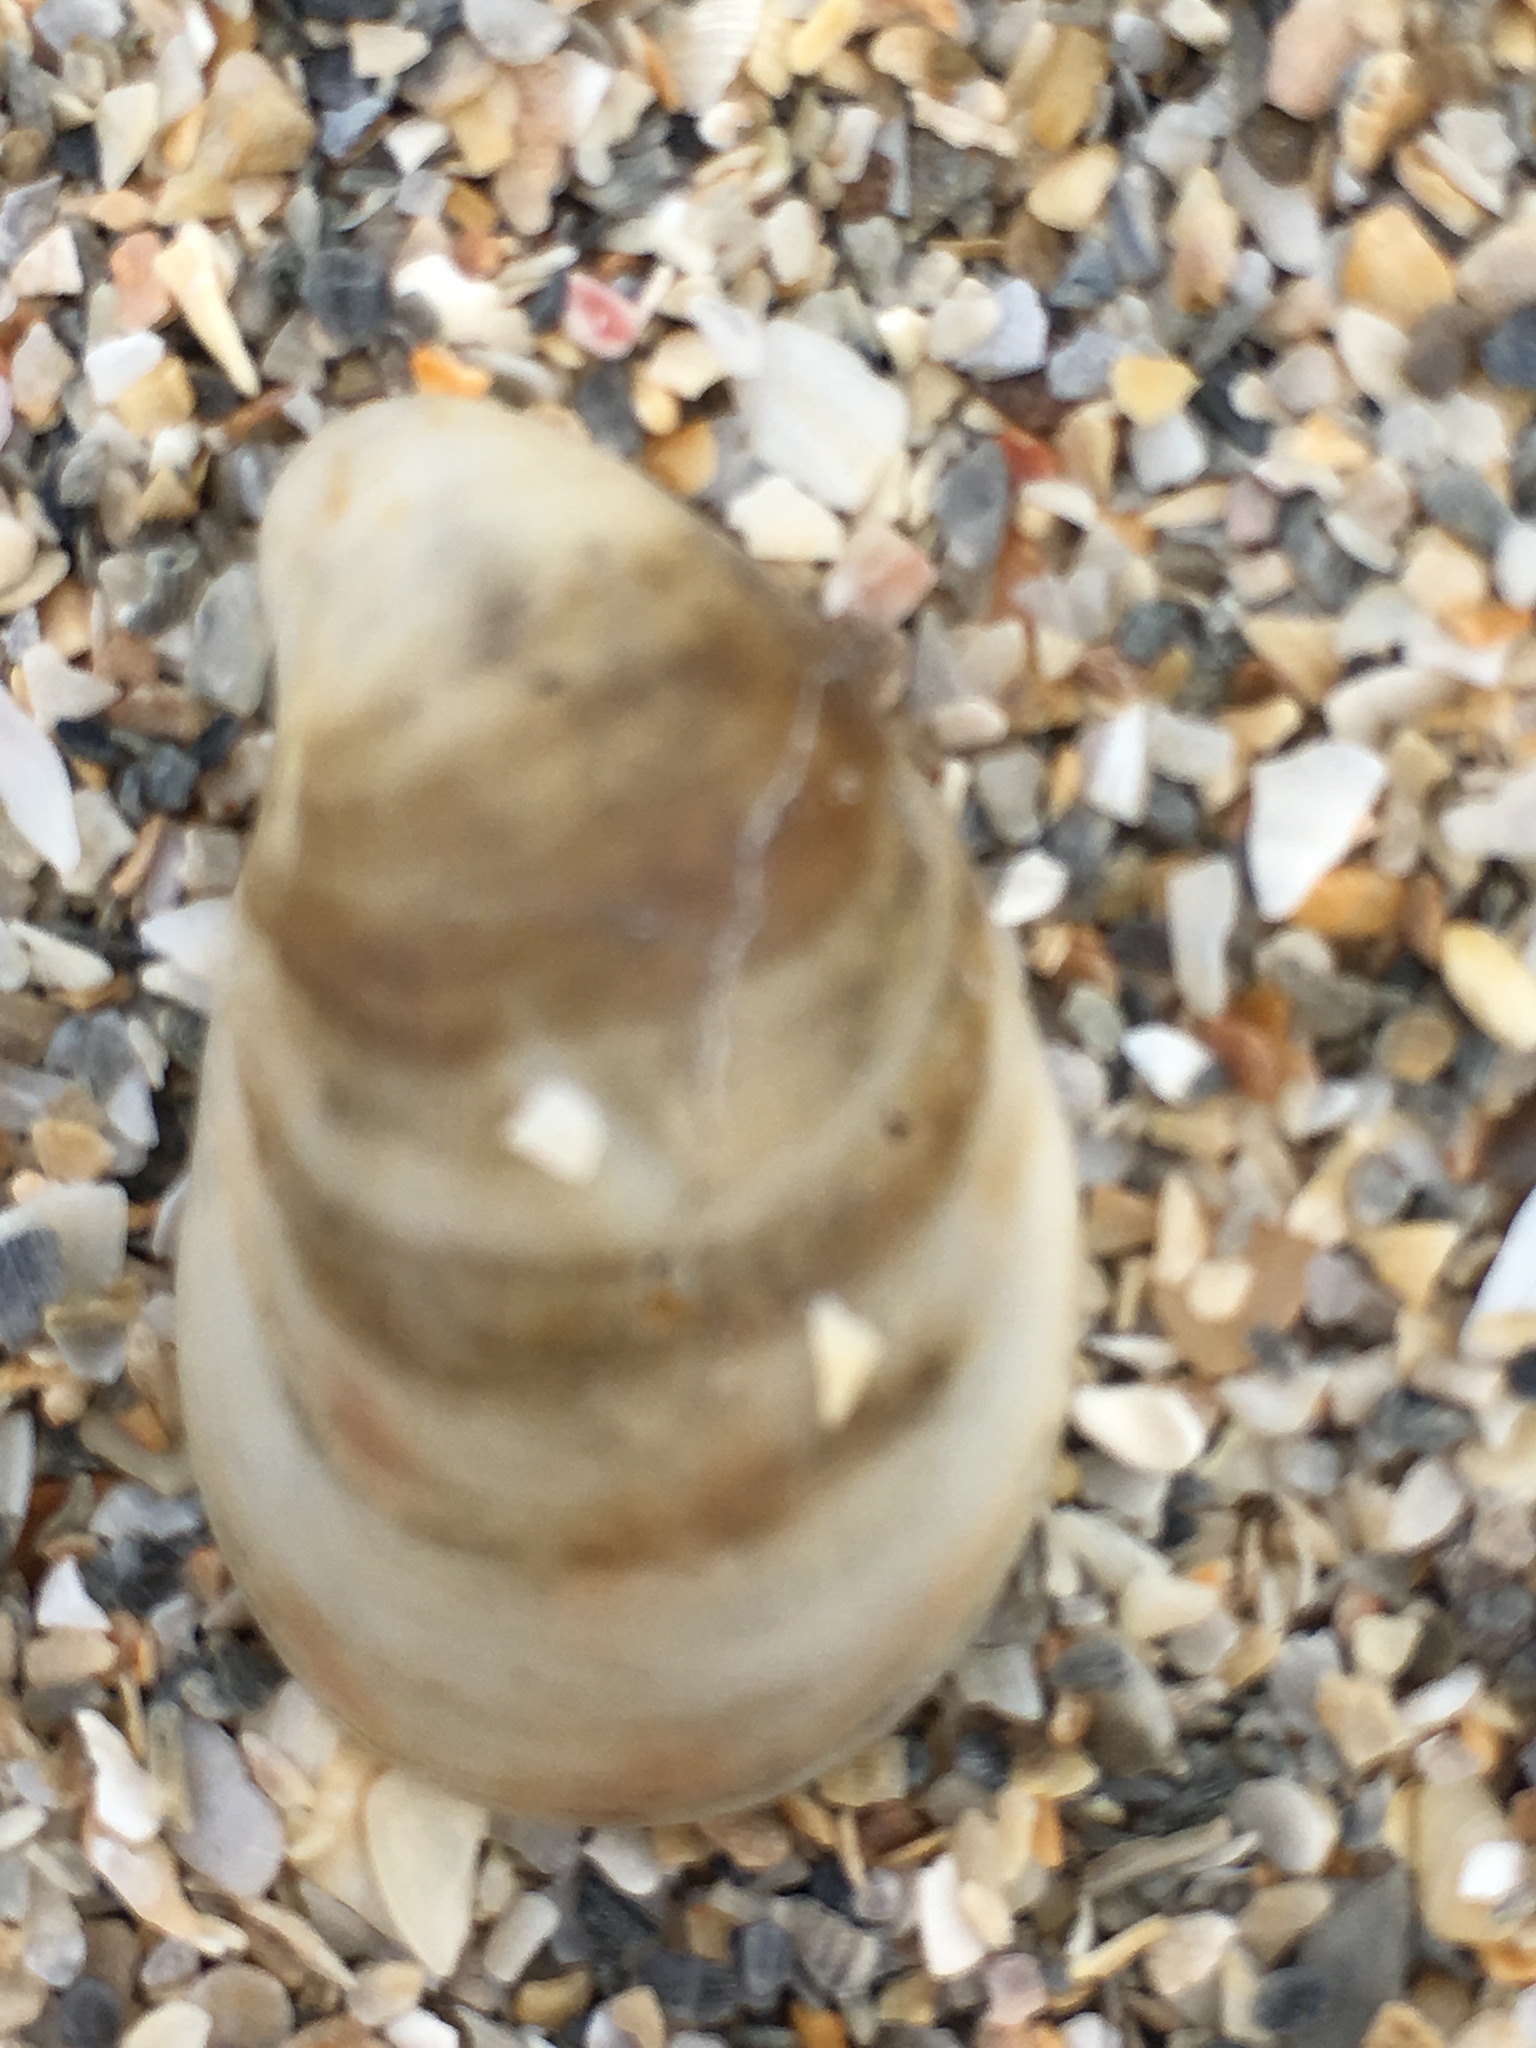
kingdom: Animalia
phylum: Mollusca
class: Gastropoda
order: Littorinimorpha
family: Calyptraeidae
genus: Crepidula
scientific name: Crepidula fornicata
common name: Slipper limpet
